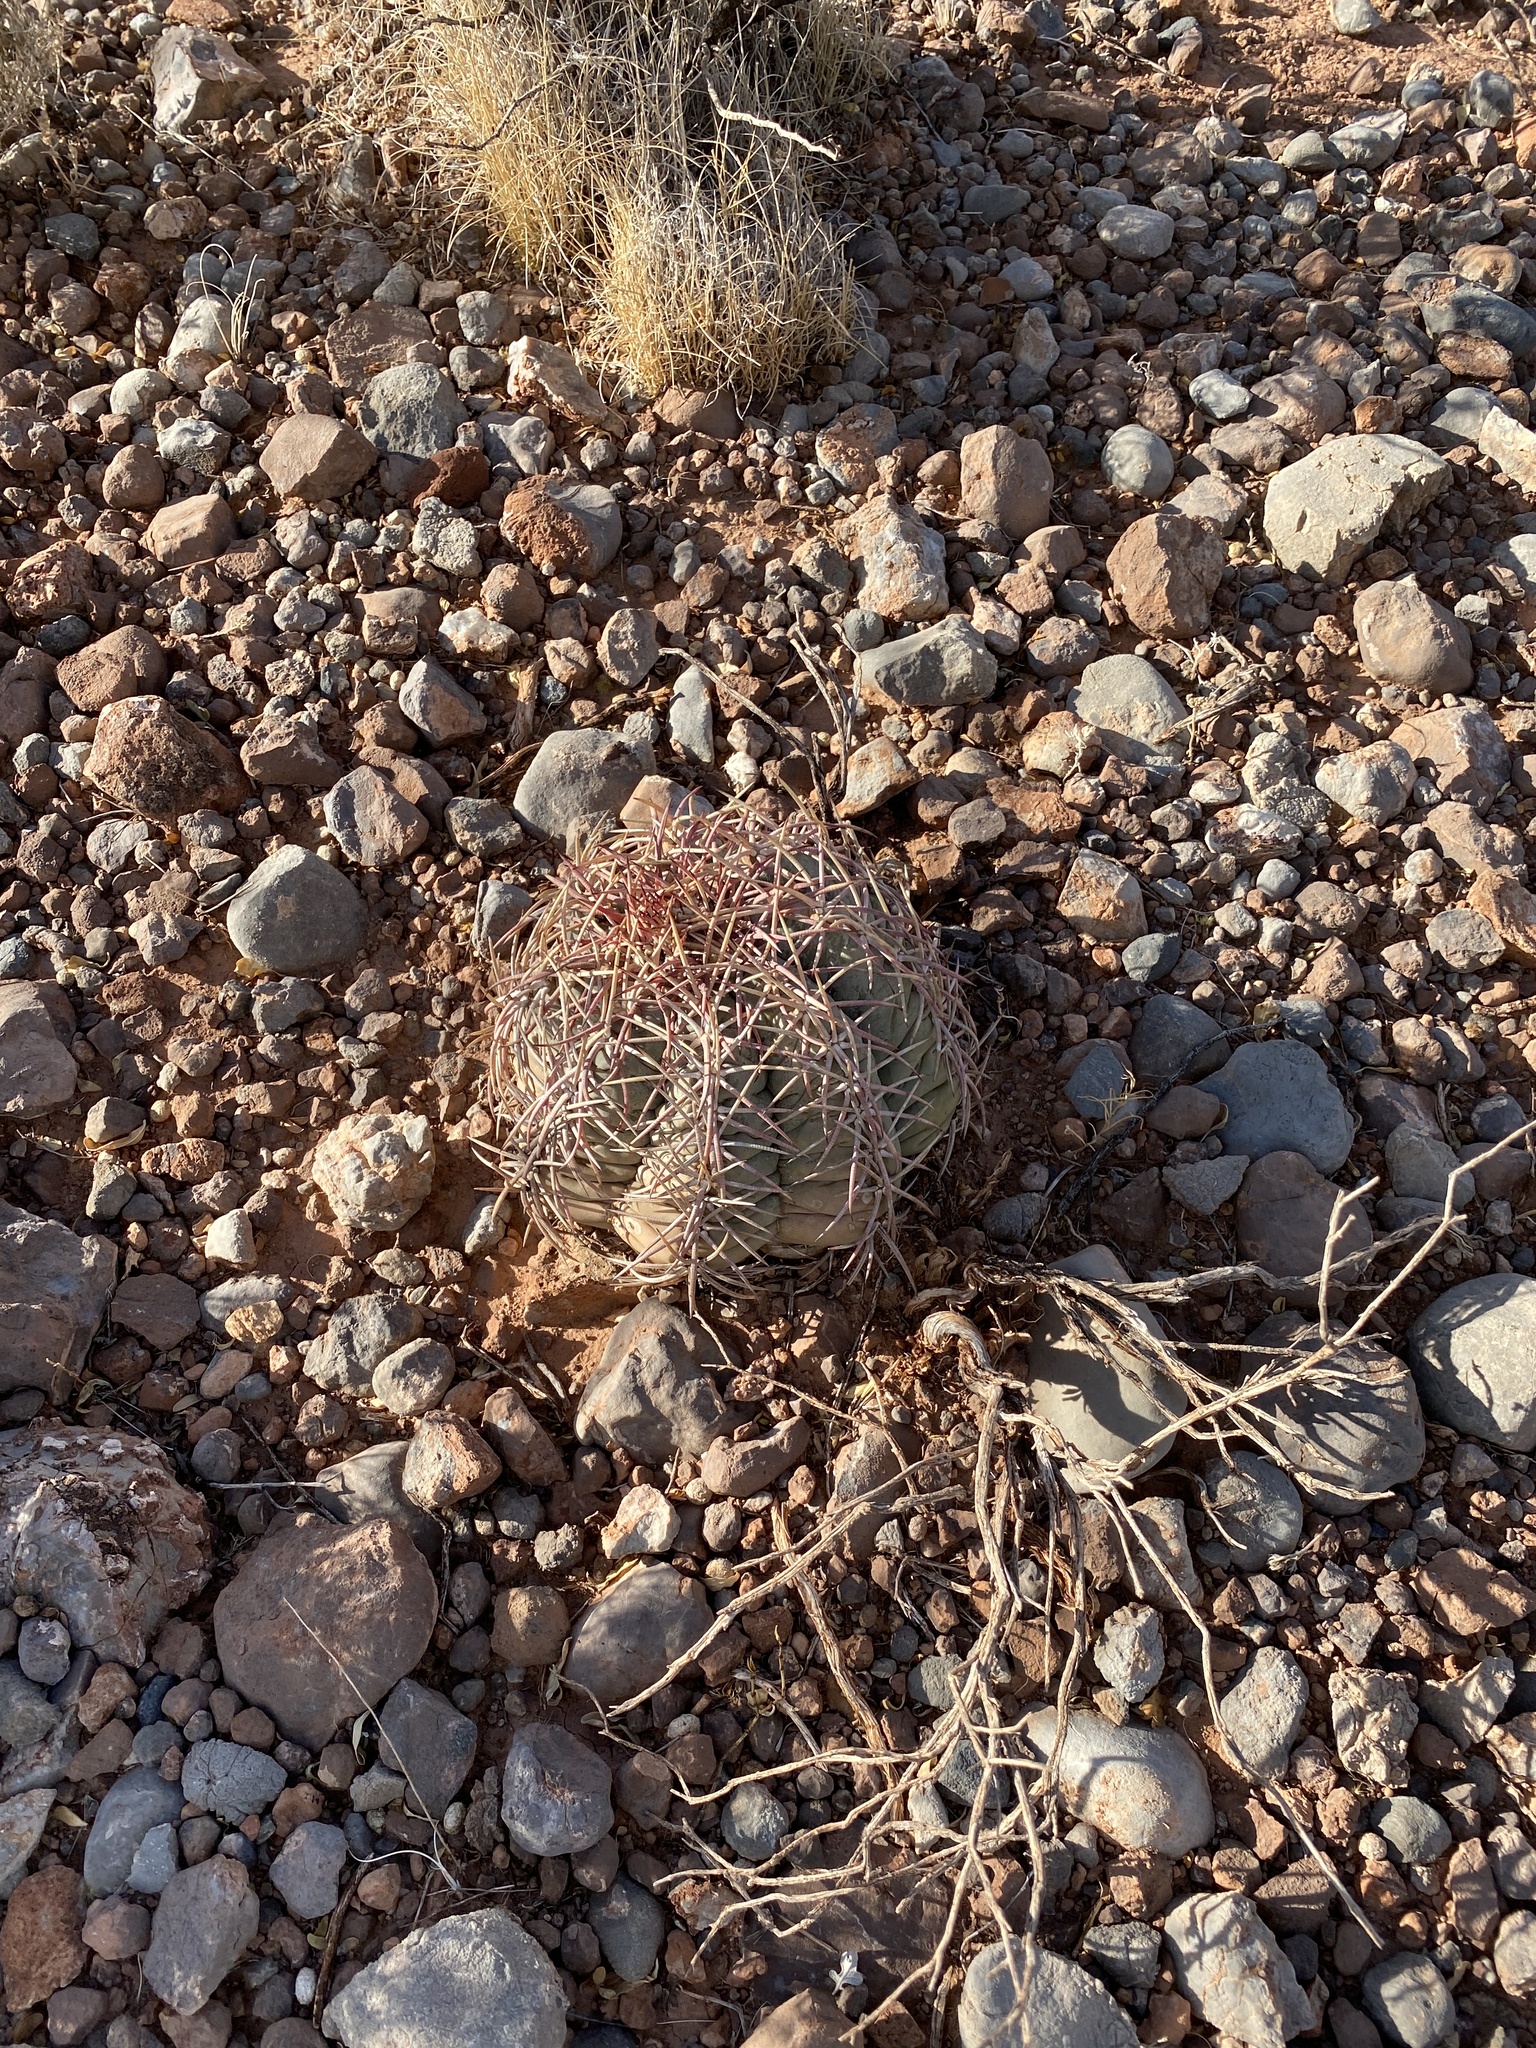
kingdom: Plantae
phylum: Tracheophyta
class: Magnoliopsida
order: Caryophyllales
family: Cactaceae
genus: Echinocactus
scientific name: Echinocactus horizonthalonius
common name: Devilshead
